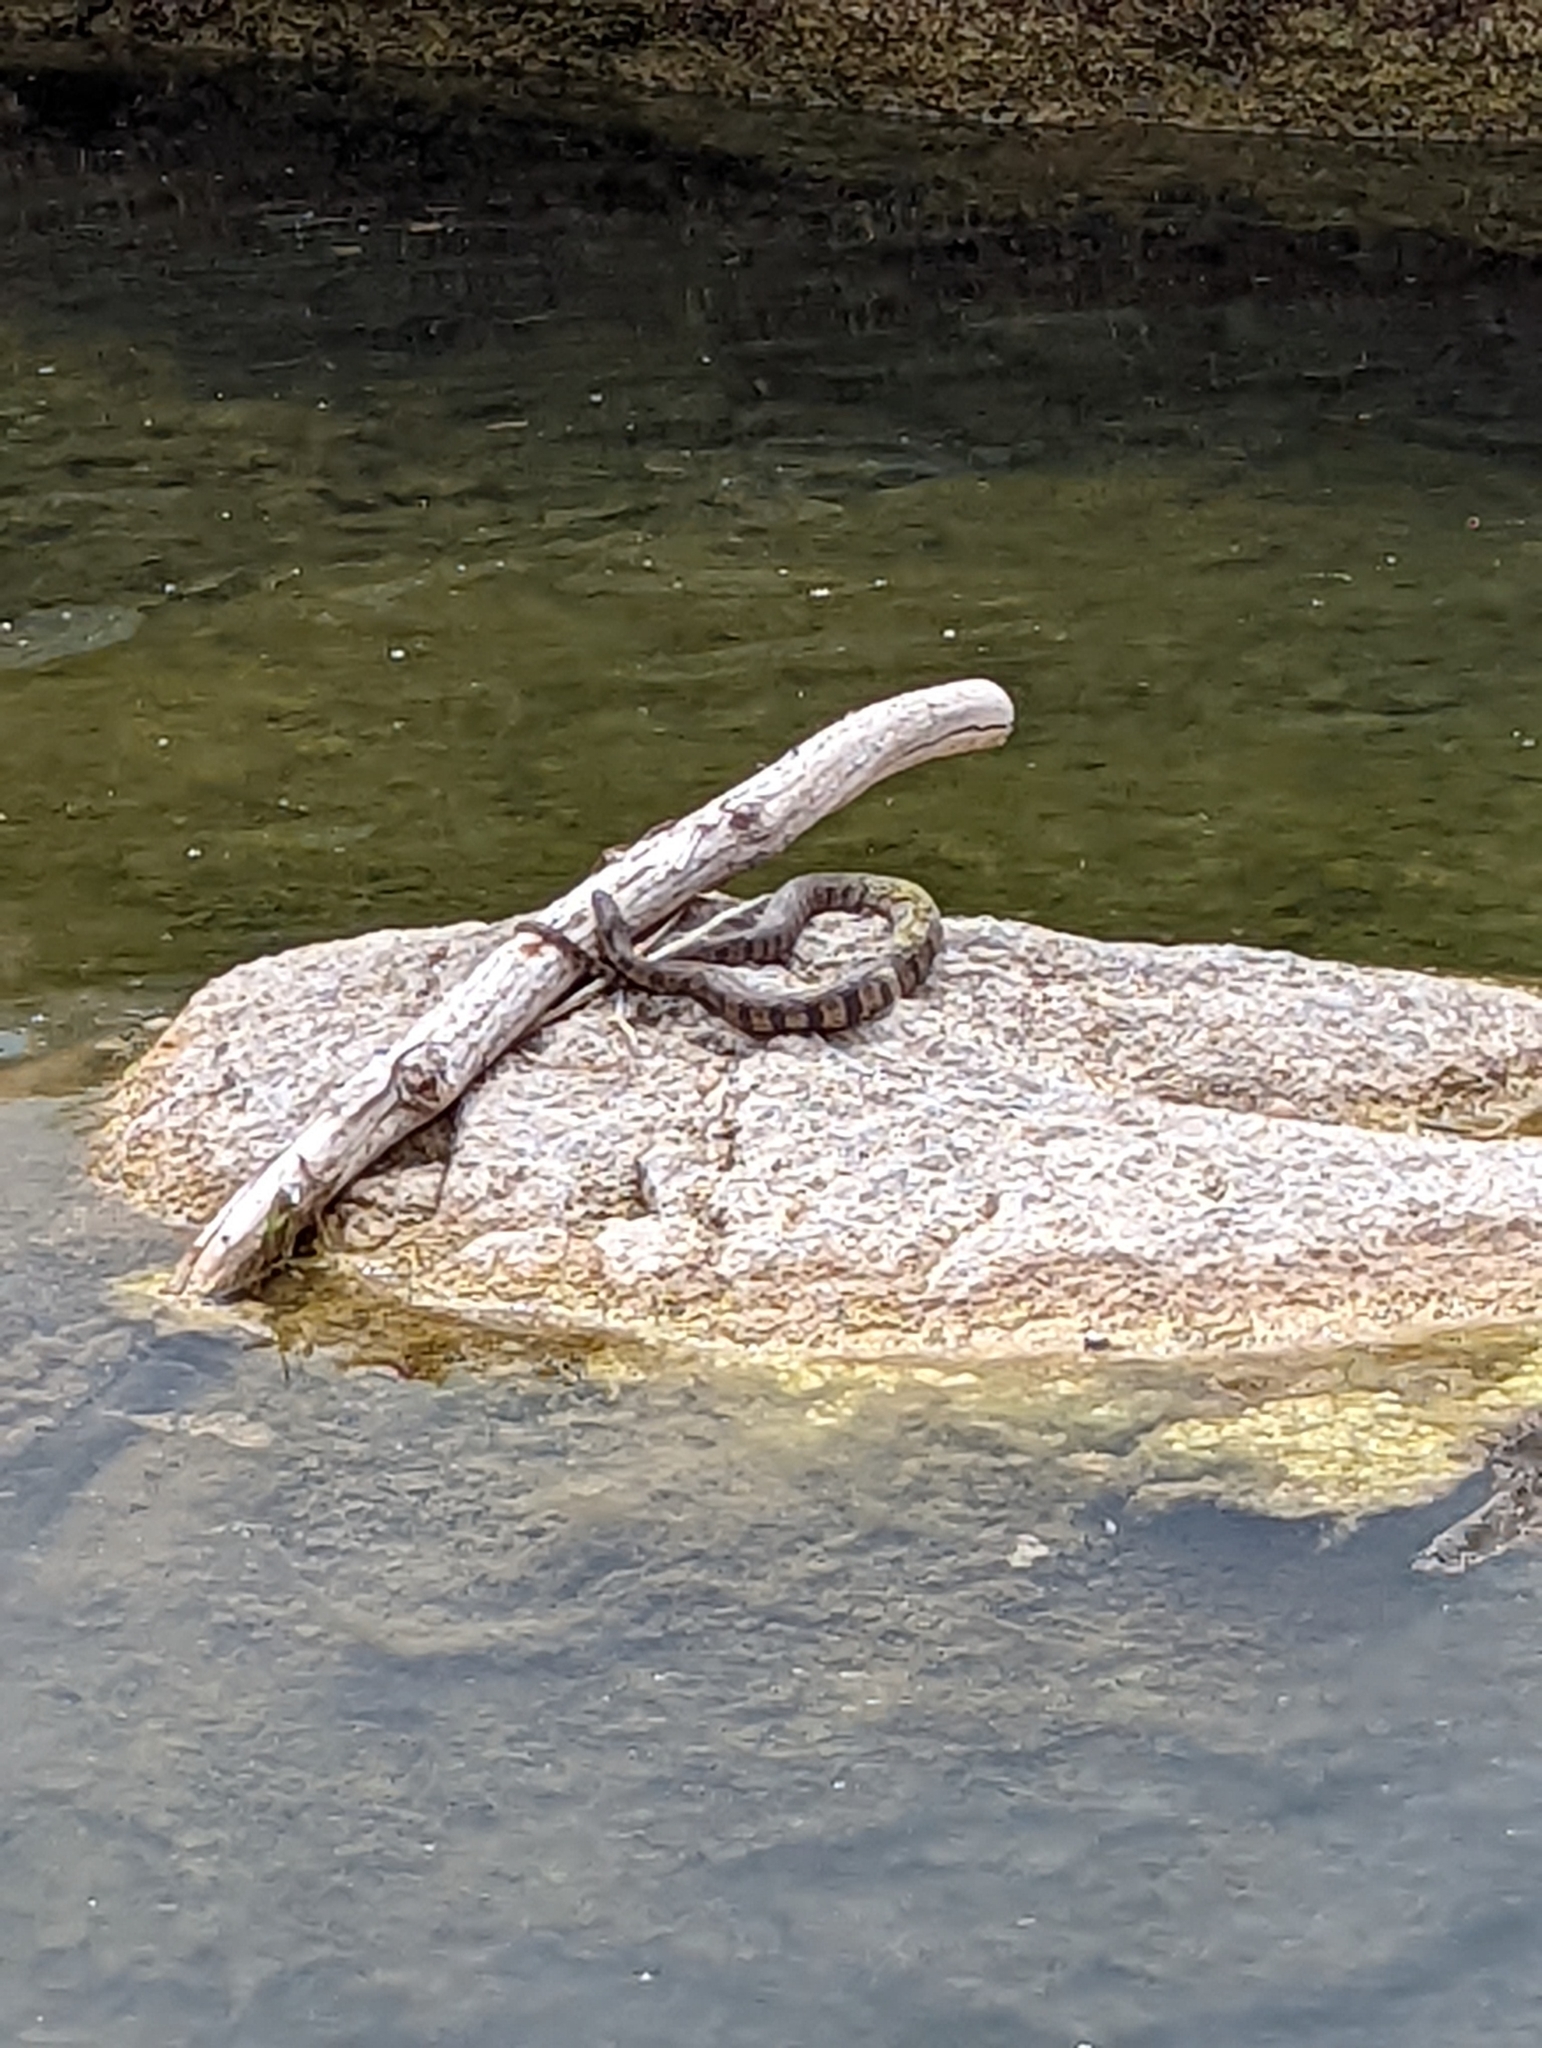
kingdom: Animalia
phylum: Chordata
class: Squamata
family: Colubridae
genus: Nerodia
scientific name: Nerodia rhombifer
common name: Diamondback water snake
